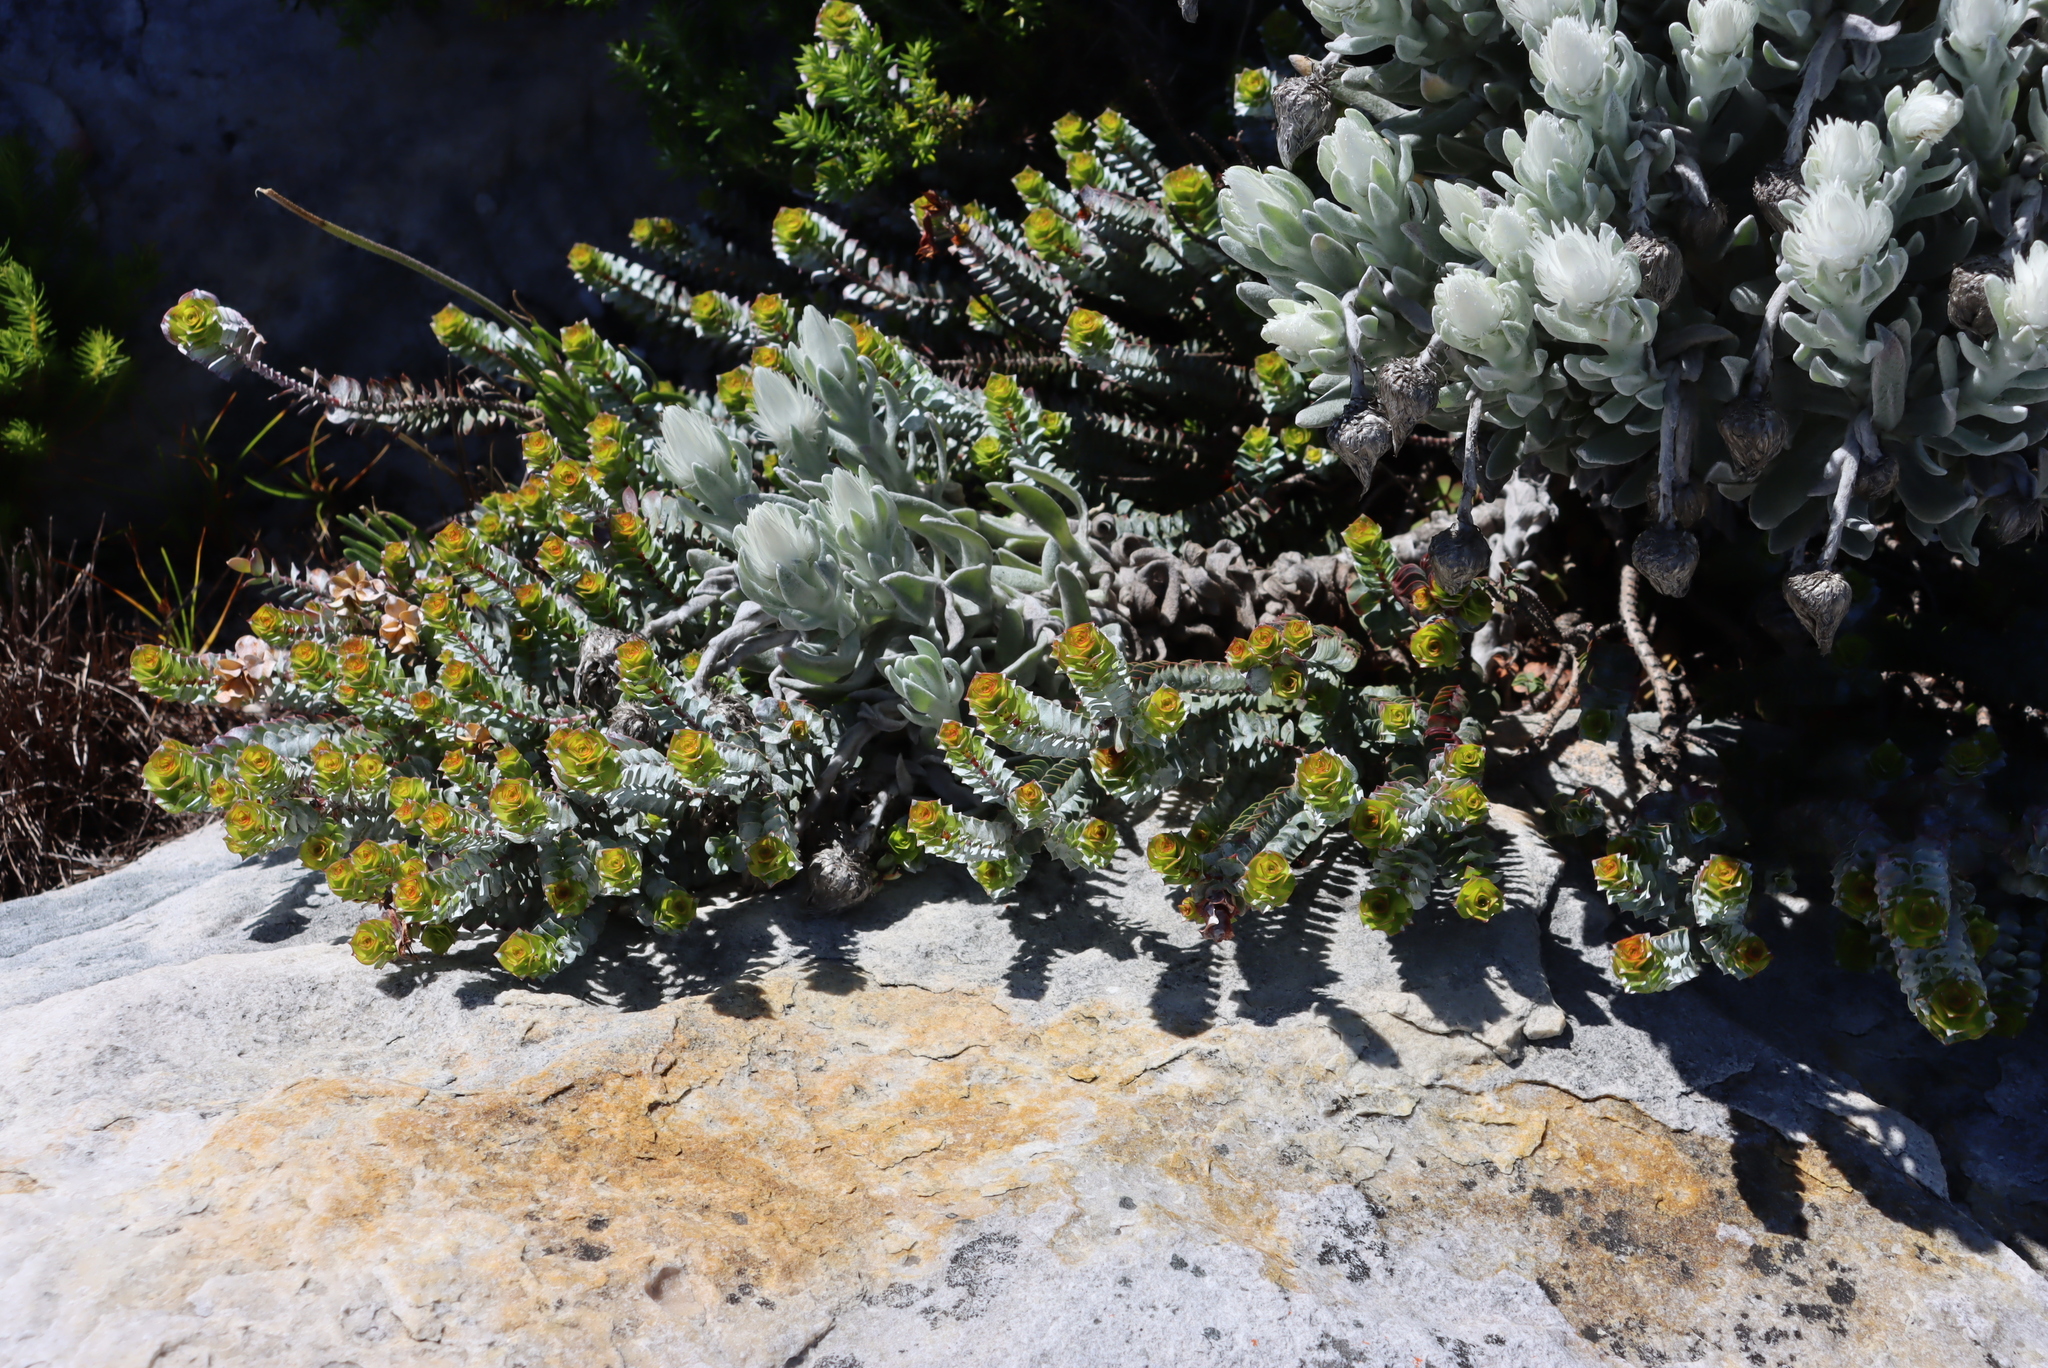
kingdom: Plantae
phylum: Tracheophyta
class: Magnoliopsida
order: Myrtales
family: Penaeaceae
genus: Saltera
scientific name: Saltera sarcocolla
